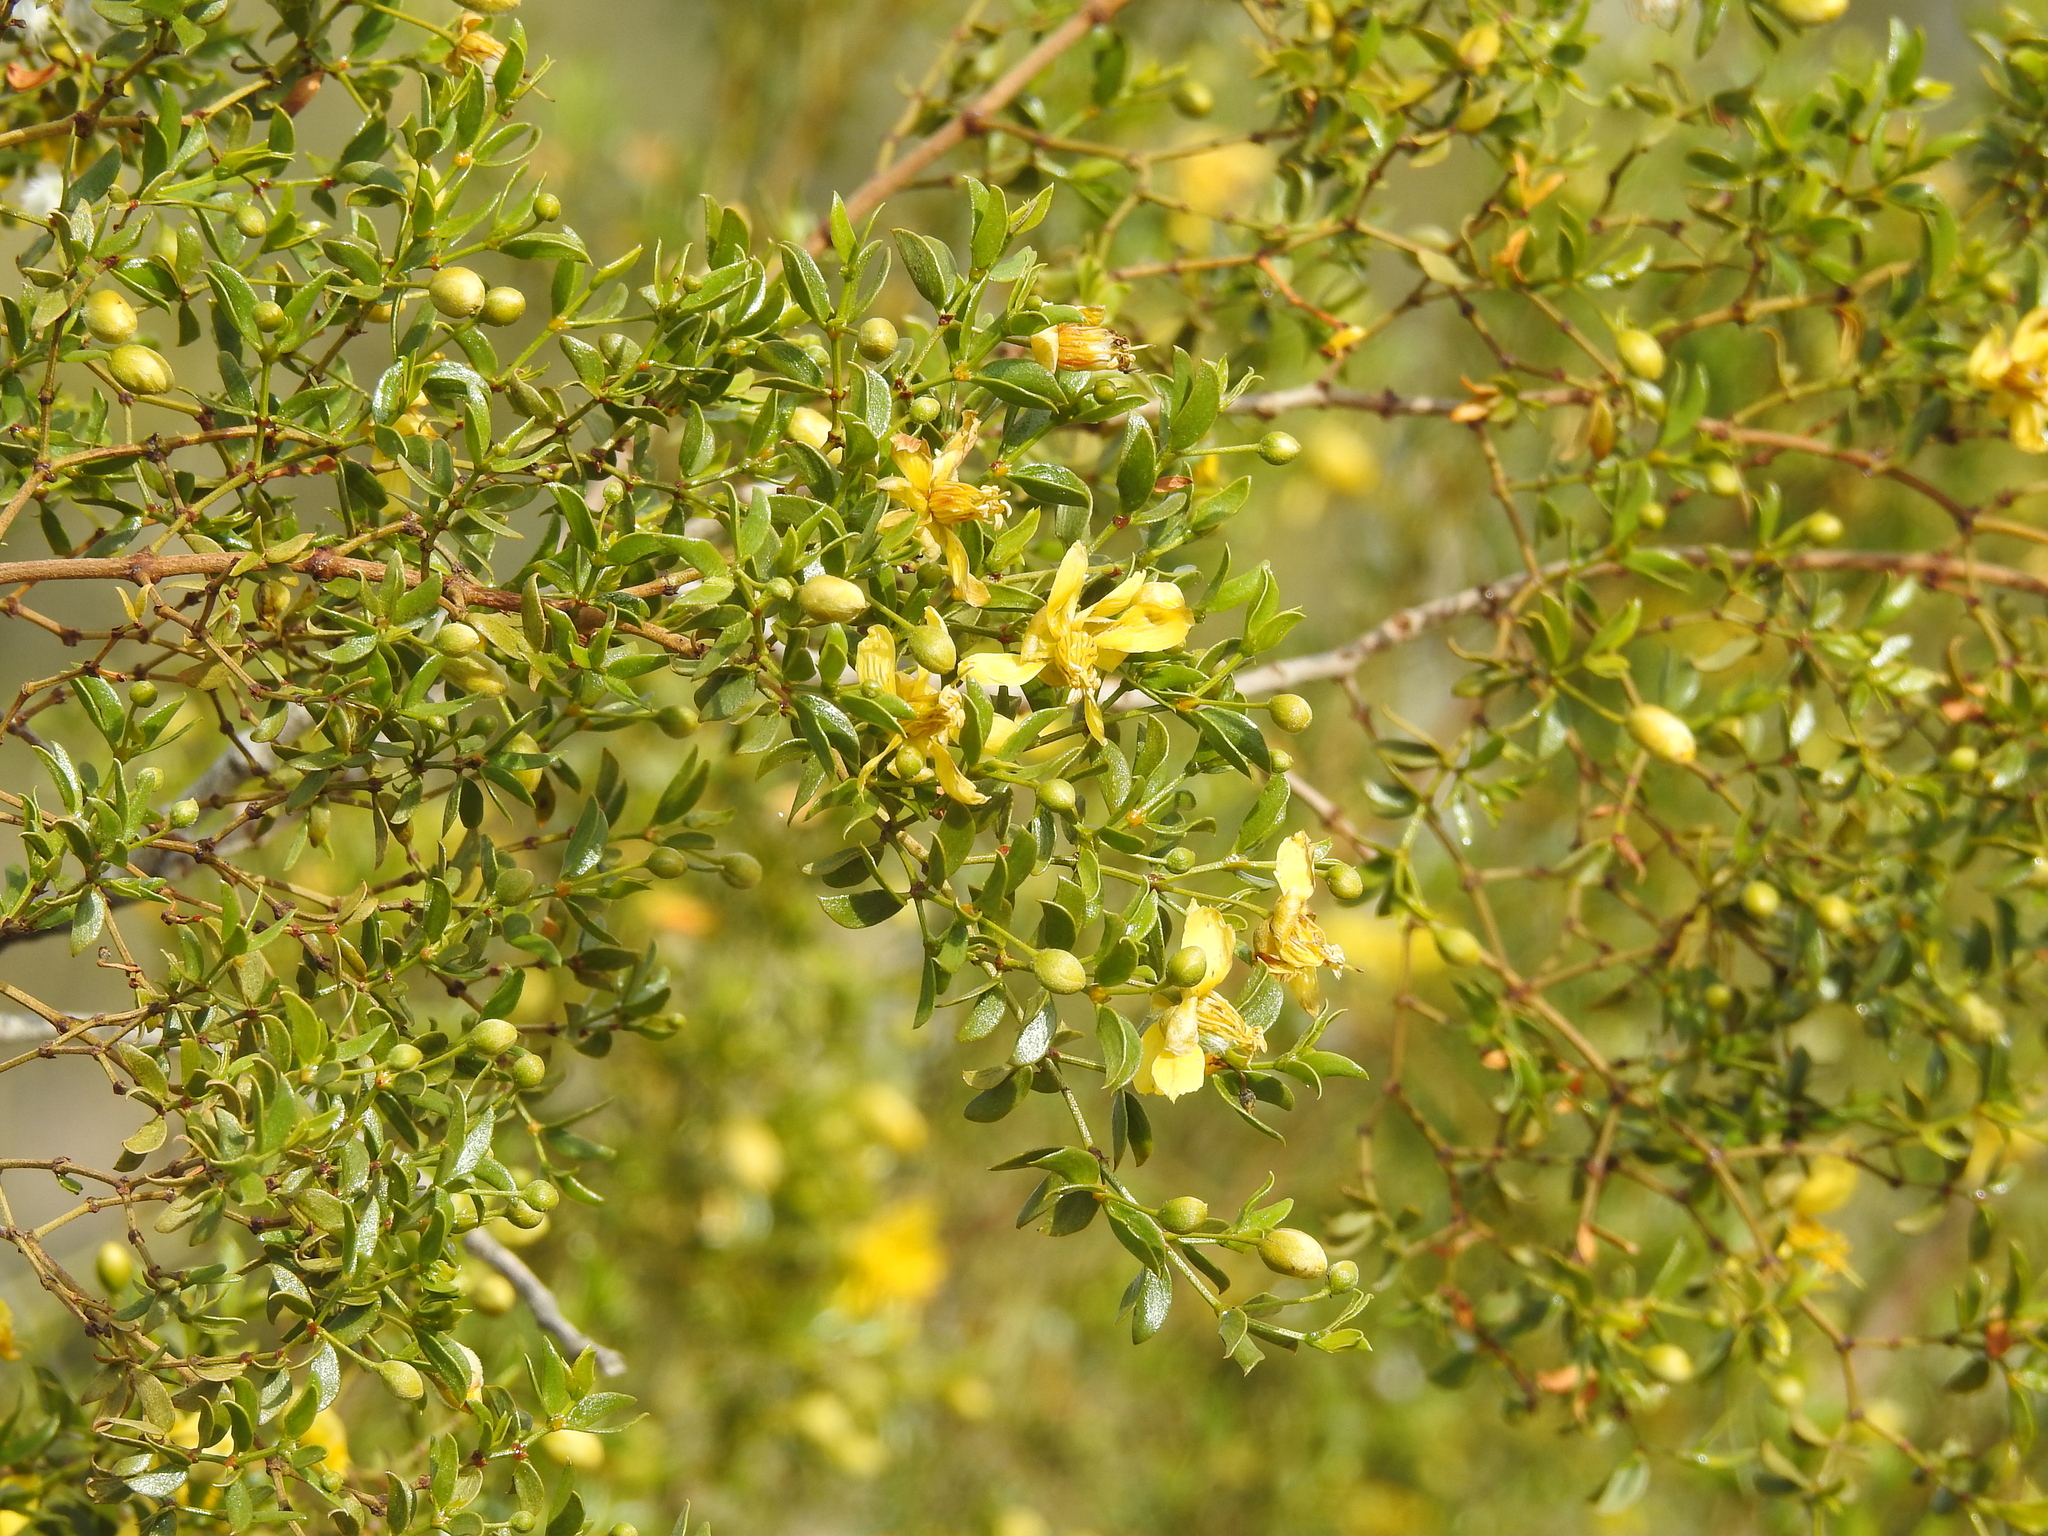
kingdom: Plantae
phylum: Tracheophyta
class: Magnoliopsida
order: Zygophyllales
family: Zygophyllaceae
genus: Larrea
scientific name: Larrea tridentata
